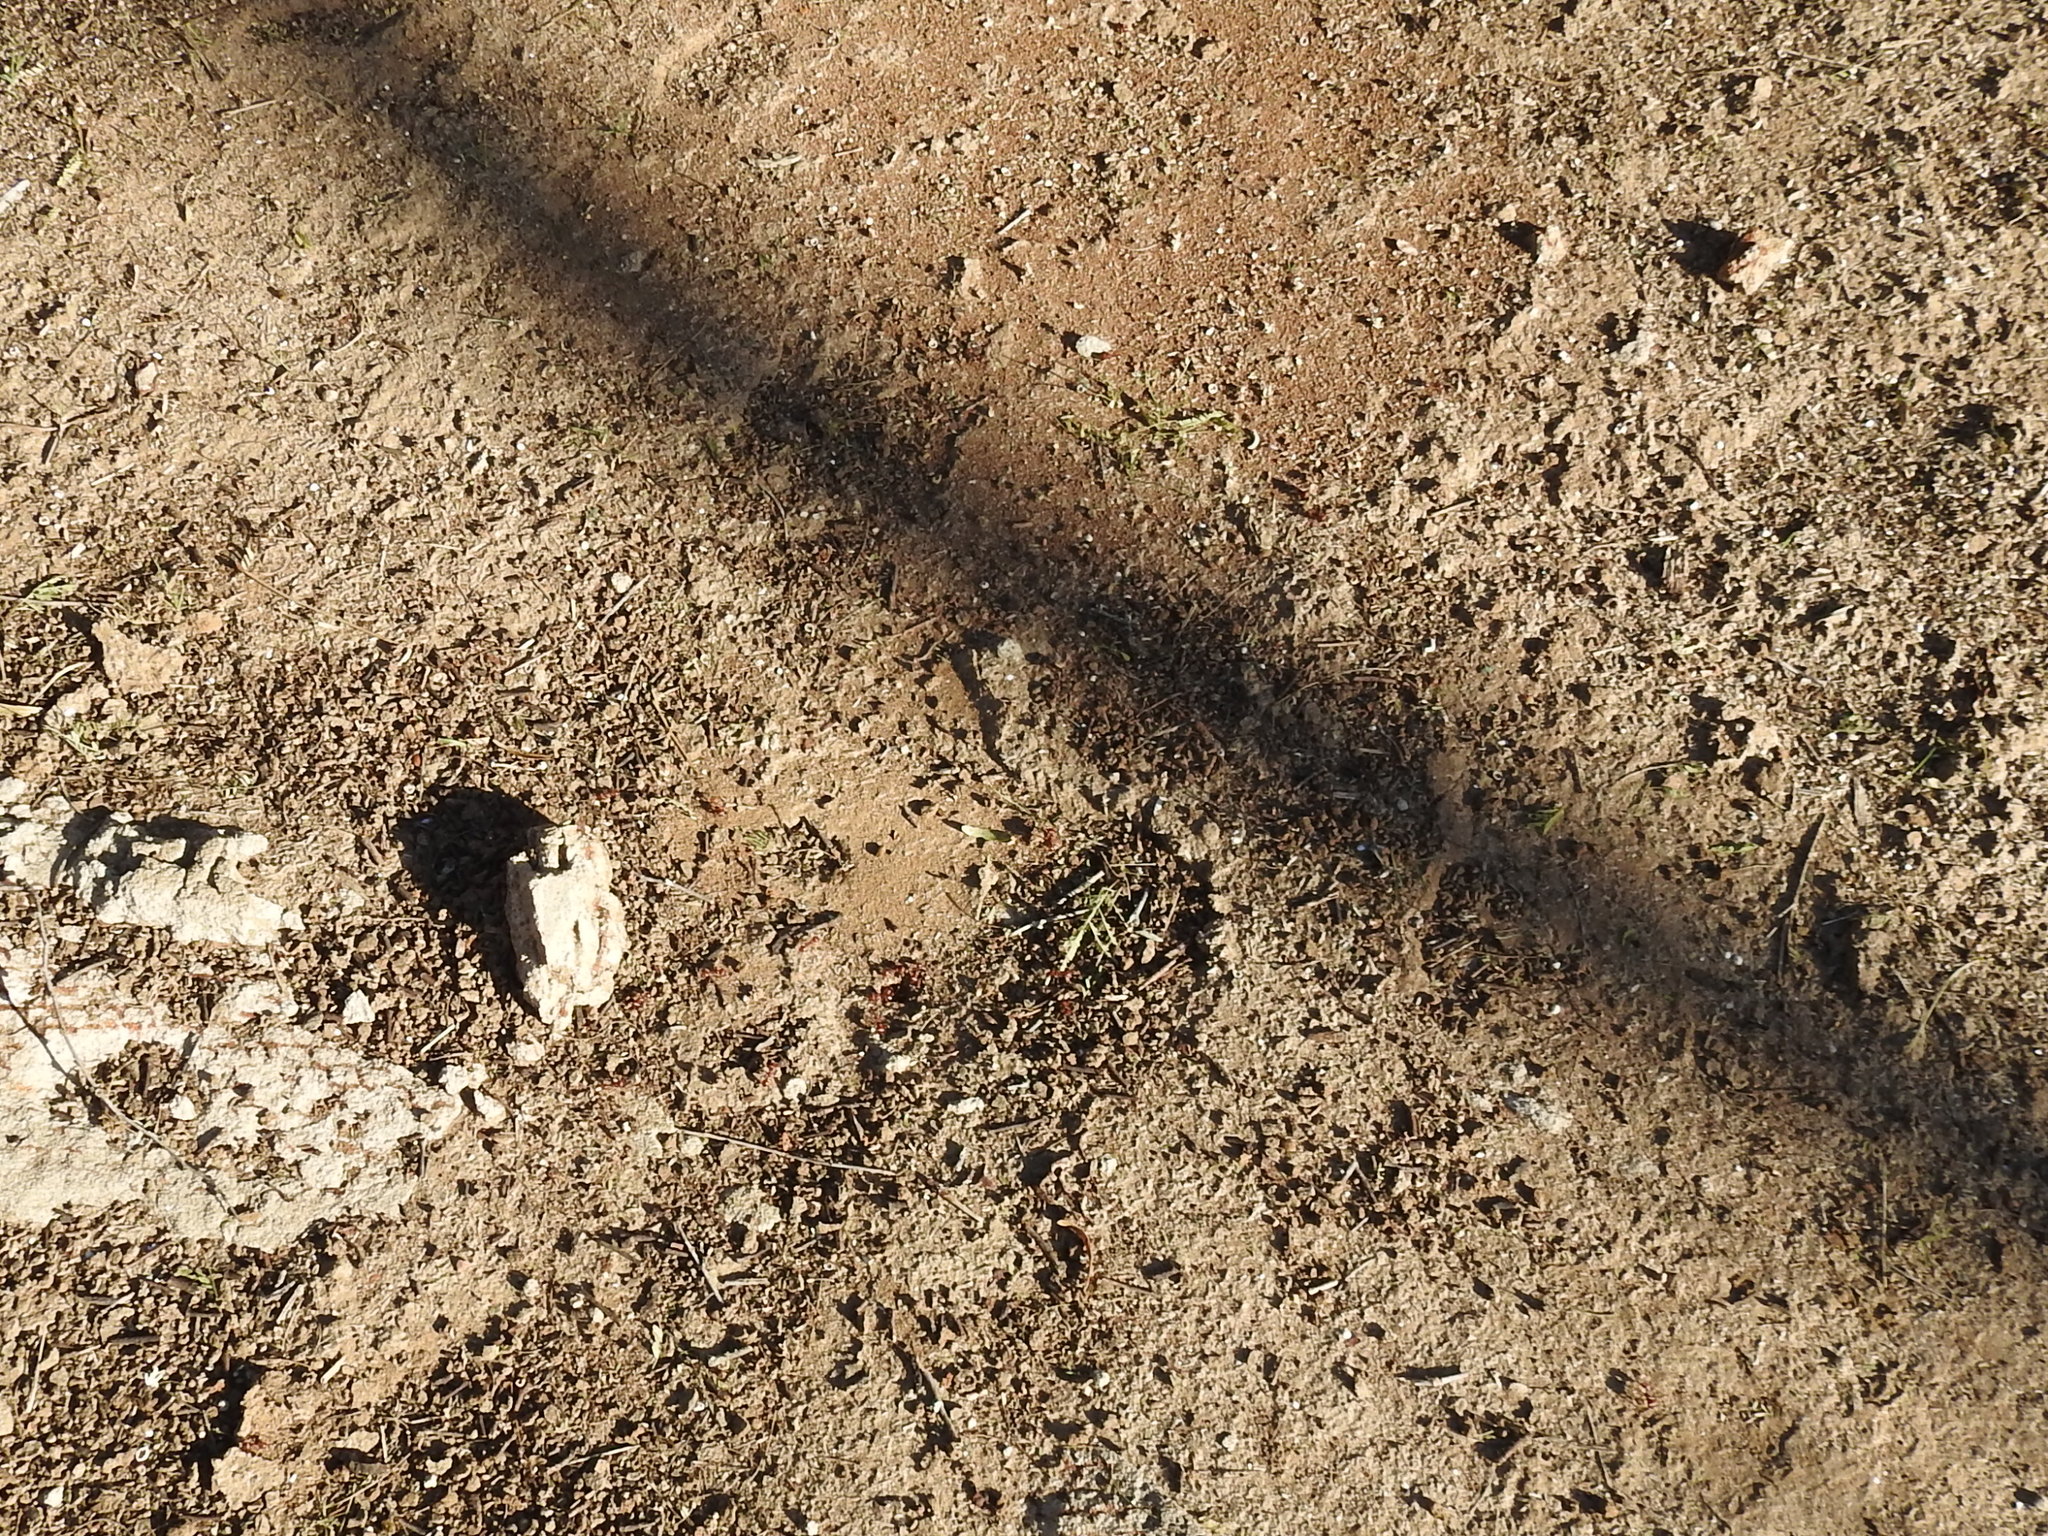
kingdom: Animalia
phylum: Arthropoda
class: Insecta
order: Hymenoptera
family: Formicidae
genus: Pogonomyrmex
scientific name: Pogonomyrmex barbatus
